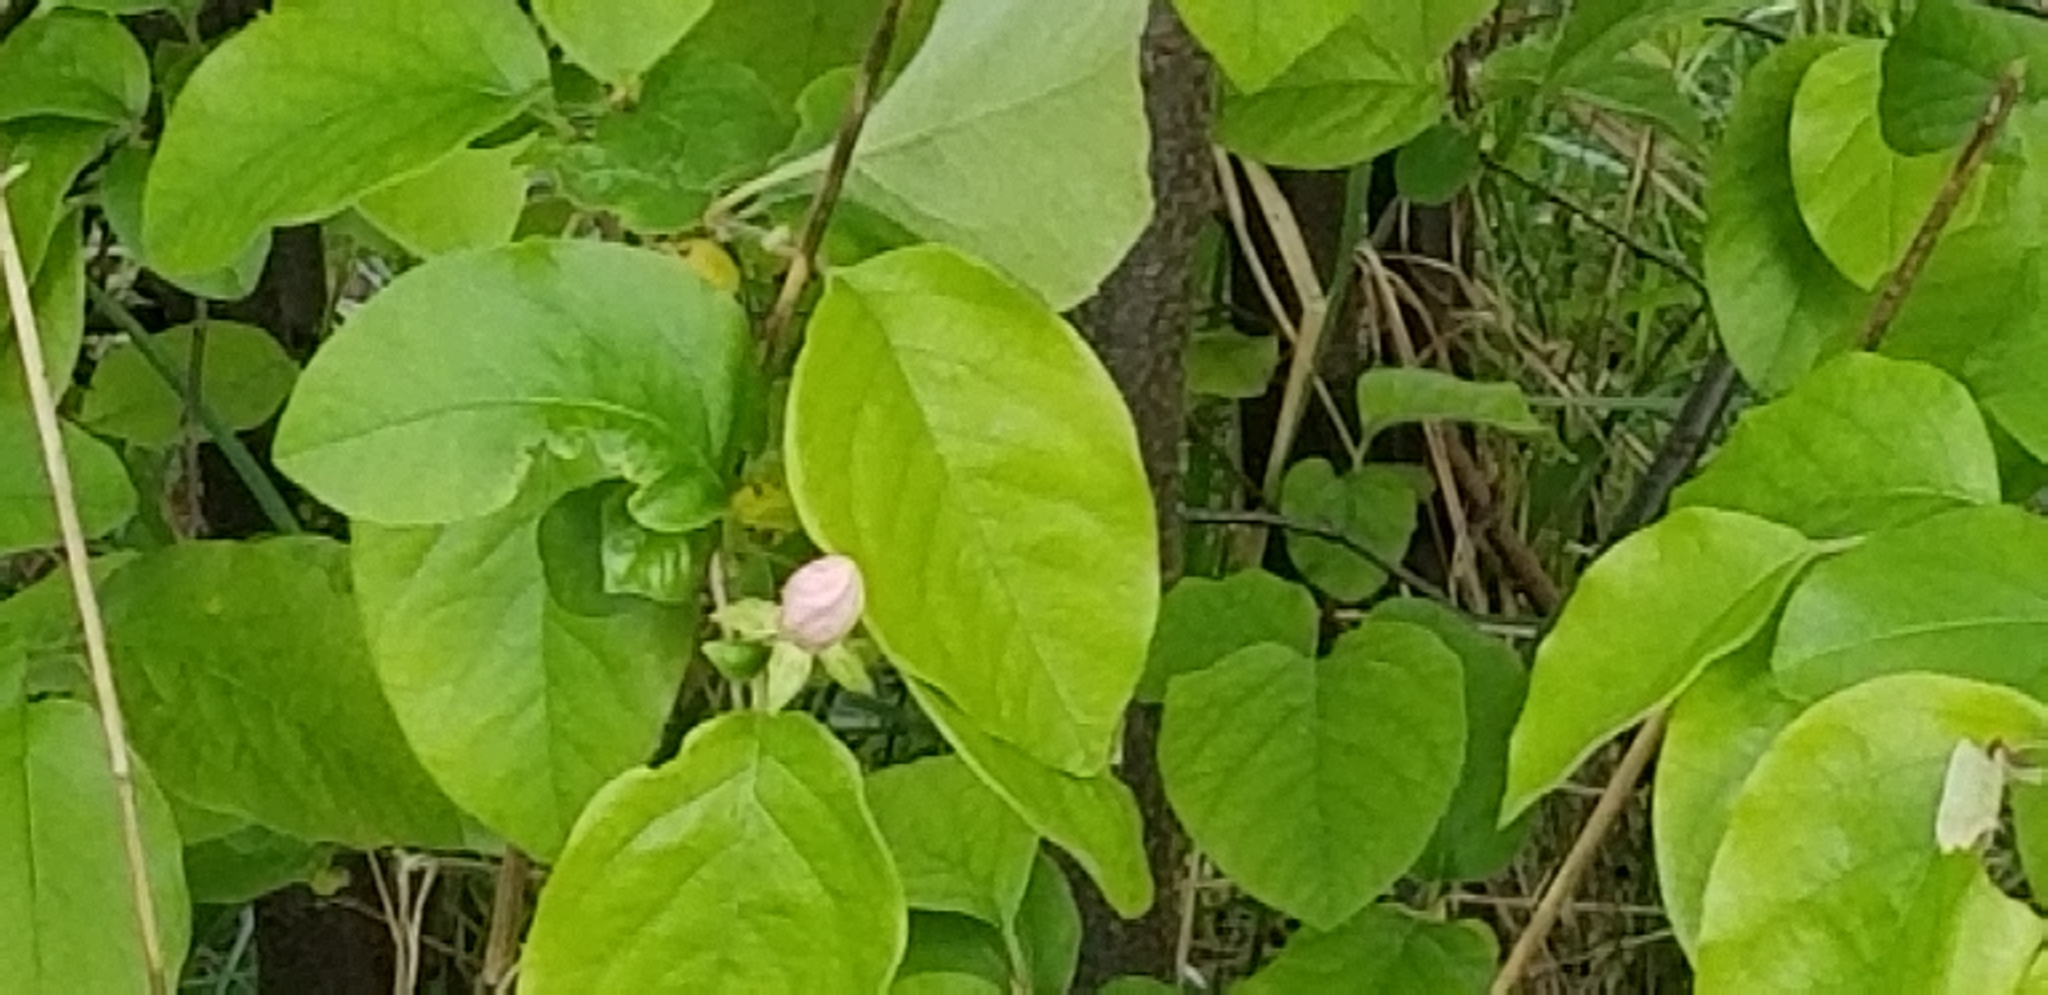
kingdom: Plantae
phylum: Tracheophyta
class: Magnoliopsida
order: Rosales
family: Rosaceae
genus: Cydonia
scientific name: Cydonia oblonga
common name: Quince
